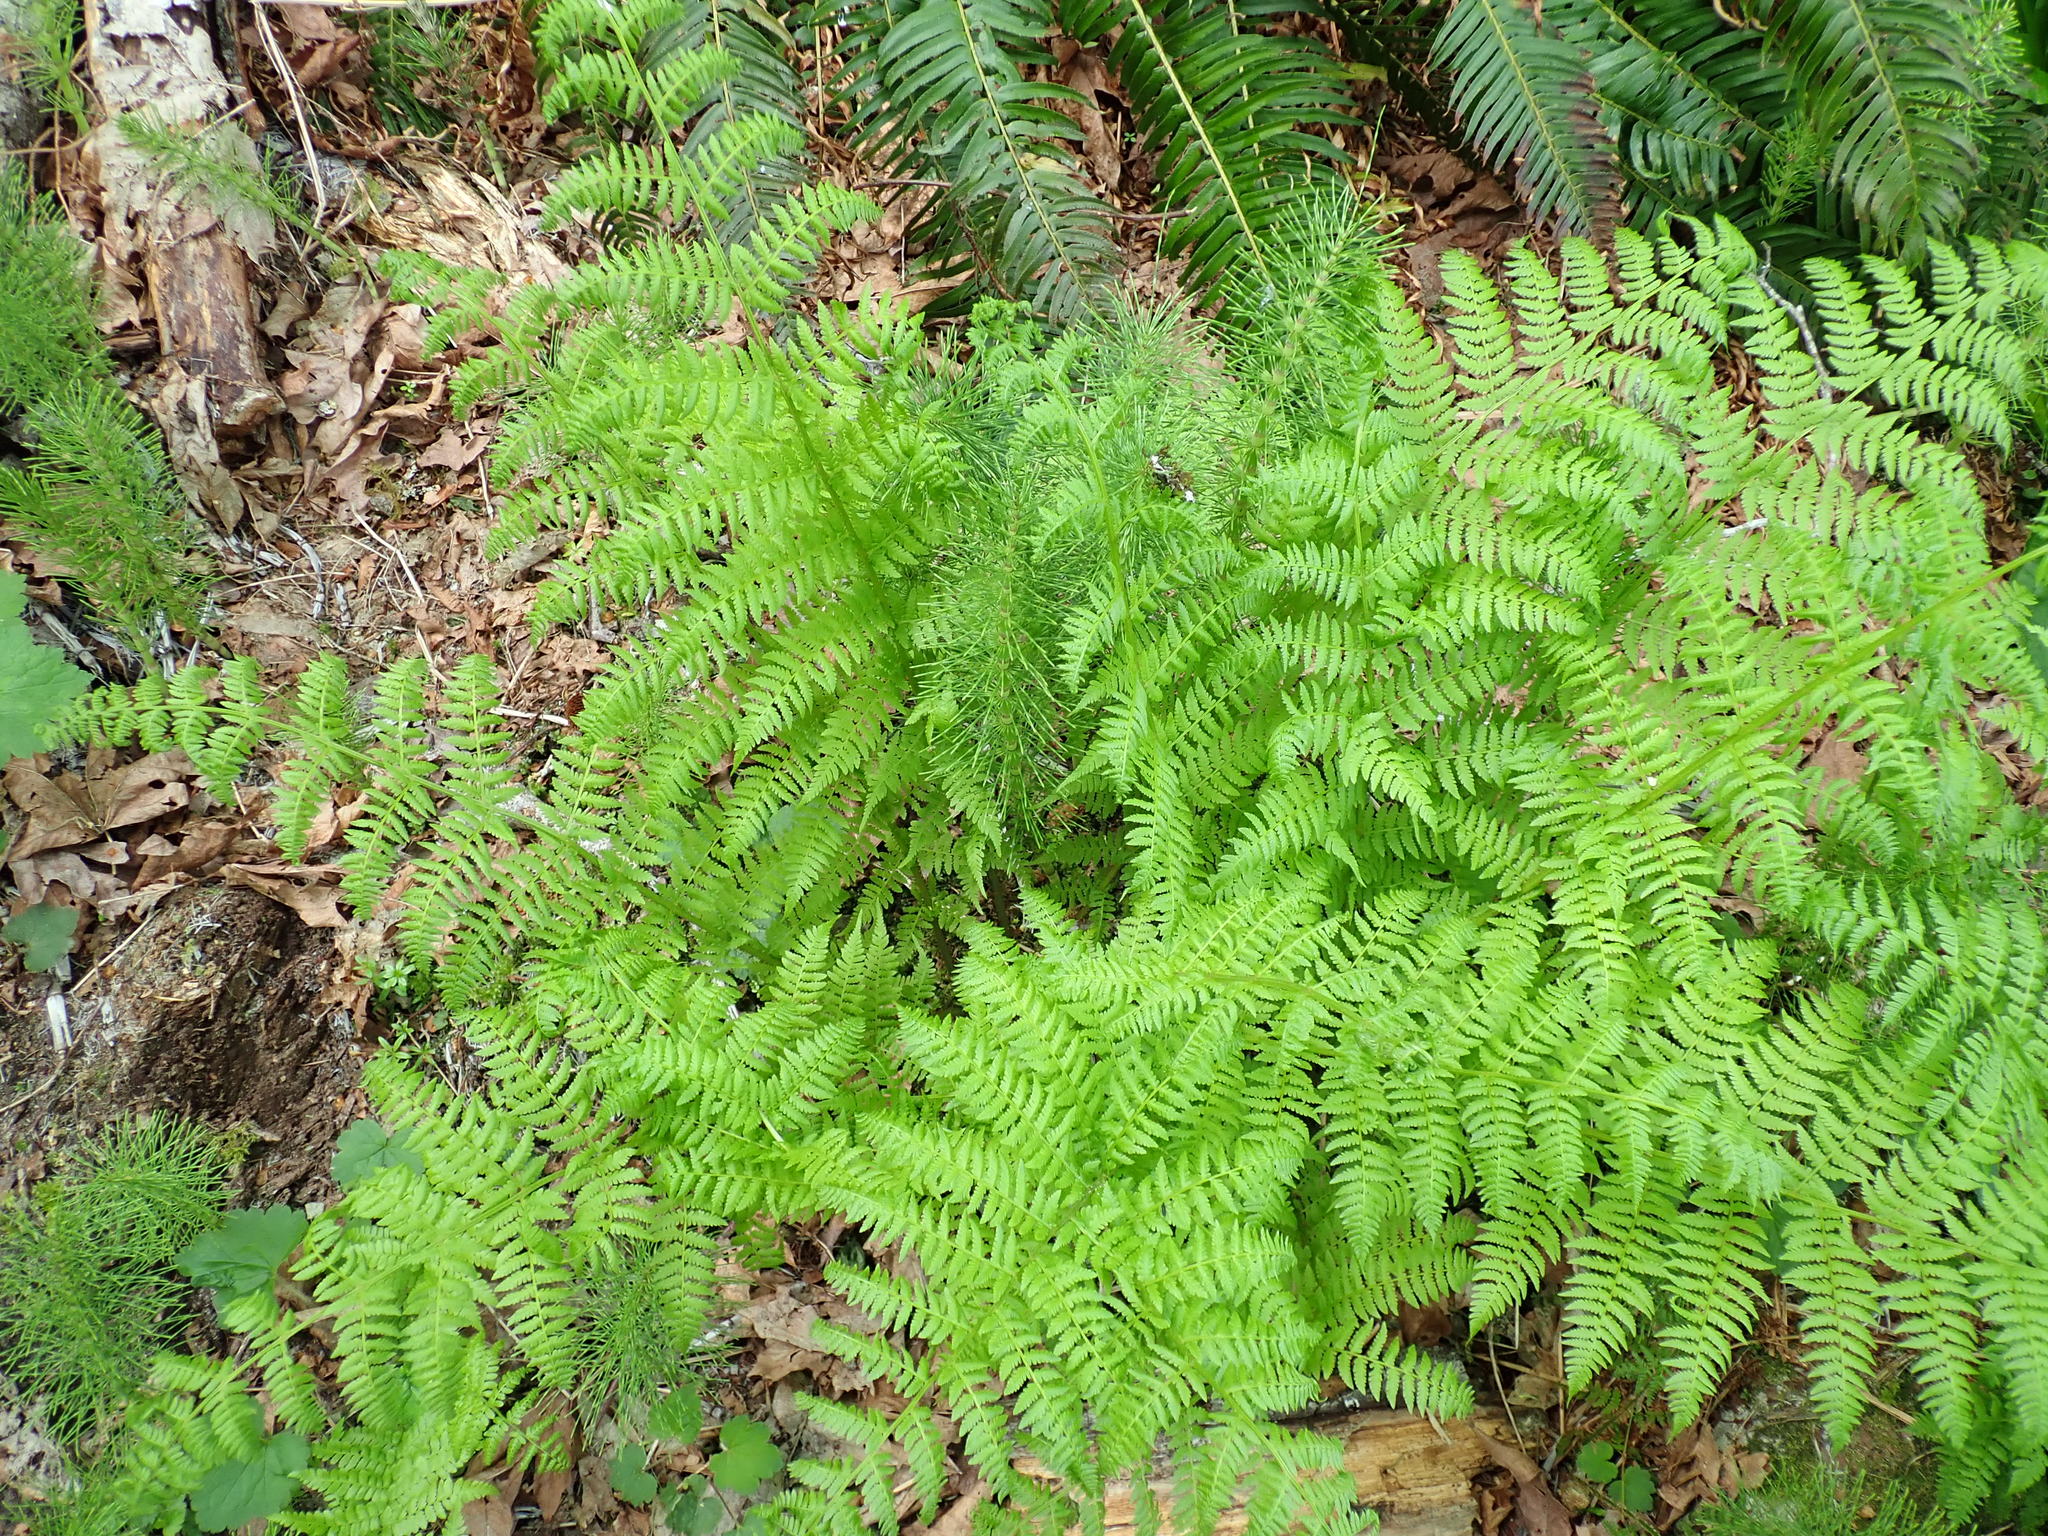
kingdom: Plantae
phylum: Tracheophyta
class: Polypodiopsida
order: Polypodiales
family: Athyriaceae
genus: Athyrium
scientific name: Athyrium filix-femina
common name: Lady fern
